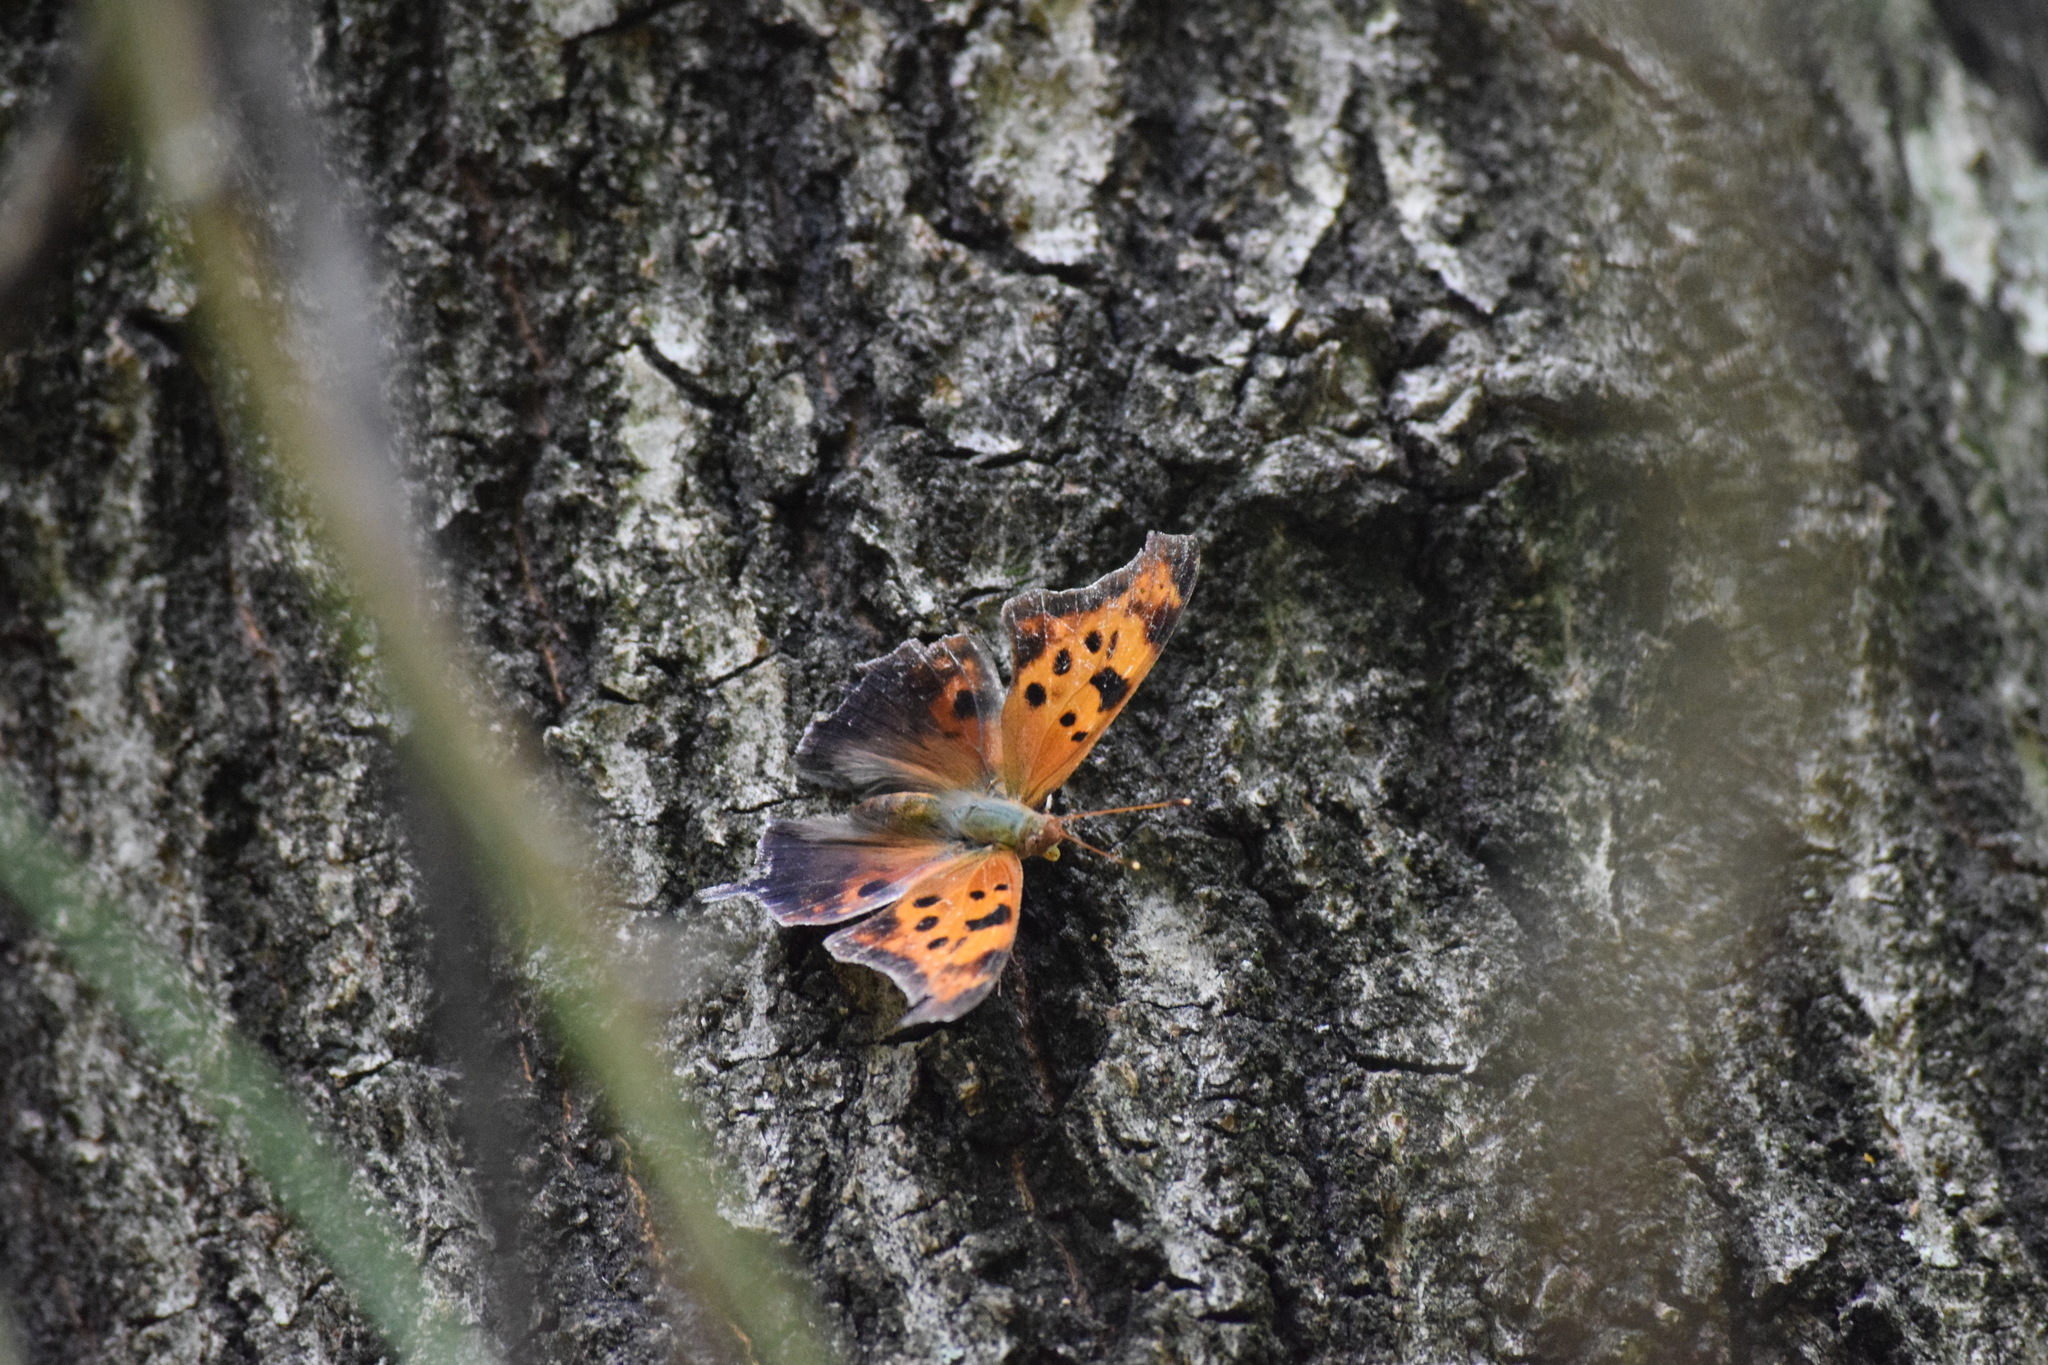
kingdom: Animalia
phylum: Arthropoda
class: Insecta
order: Lepidoptera
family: Nymphalidae
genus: Polygonia
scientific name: Polygonia interrogationis
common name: Question mark
